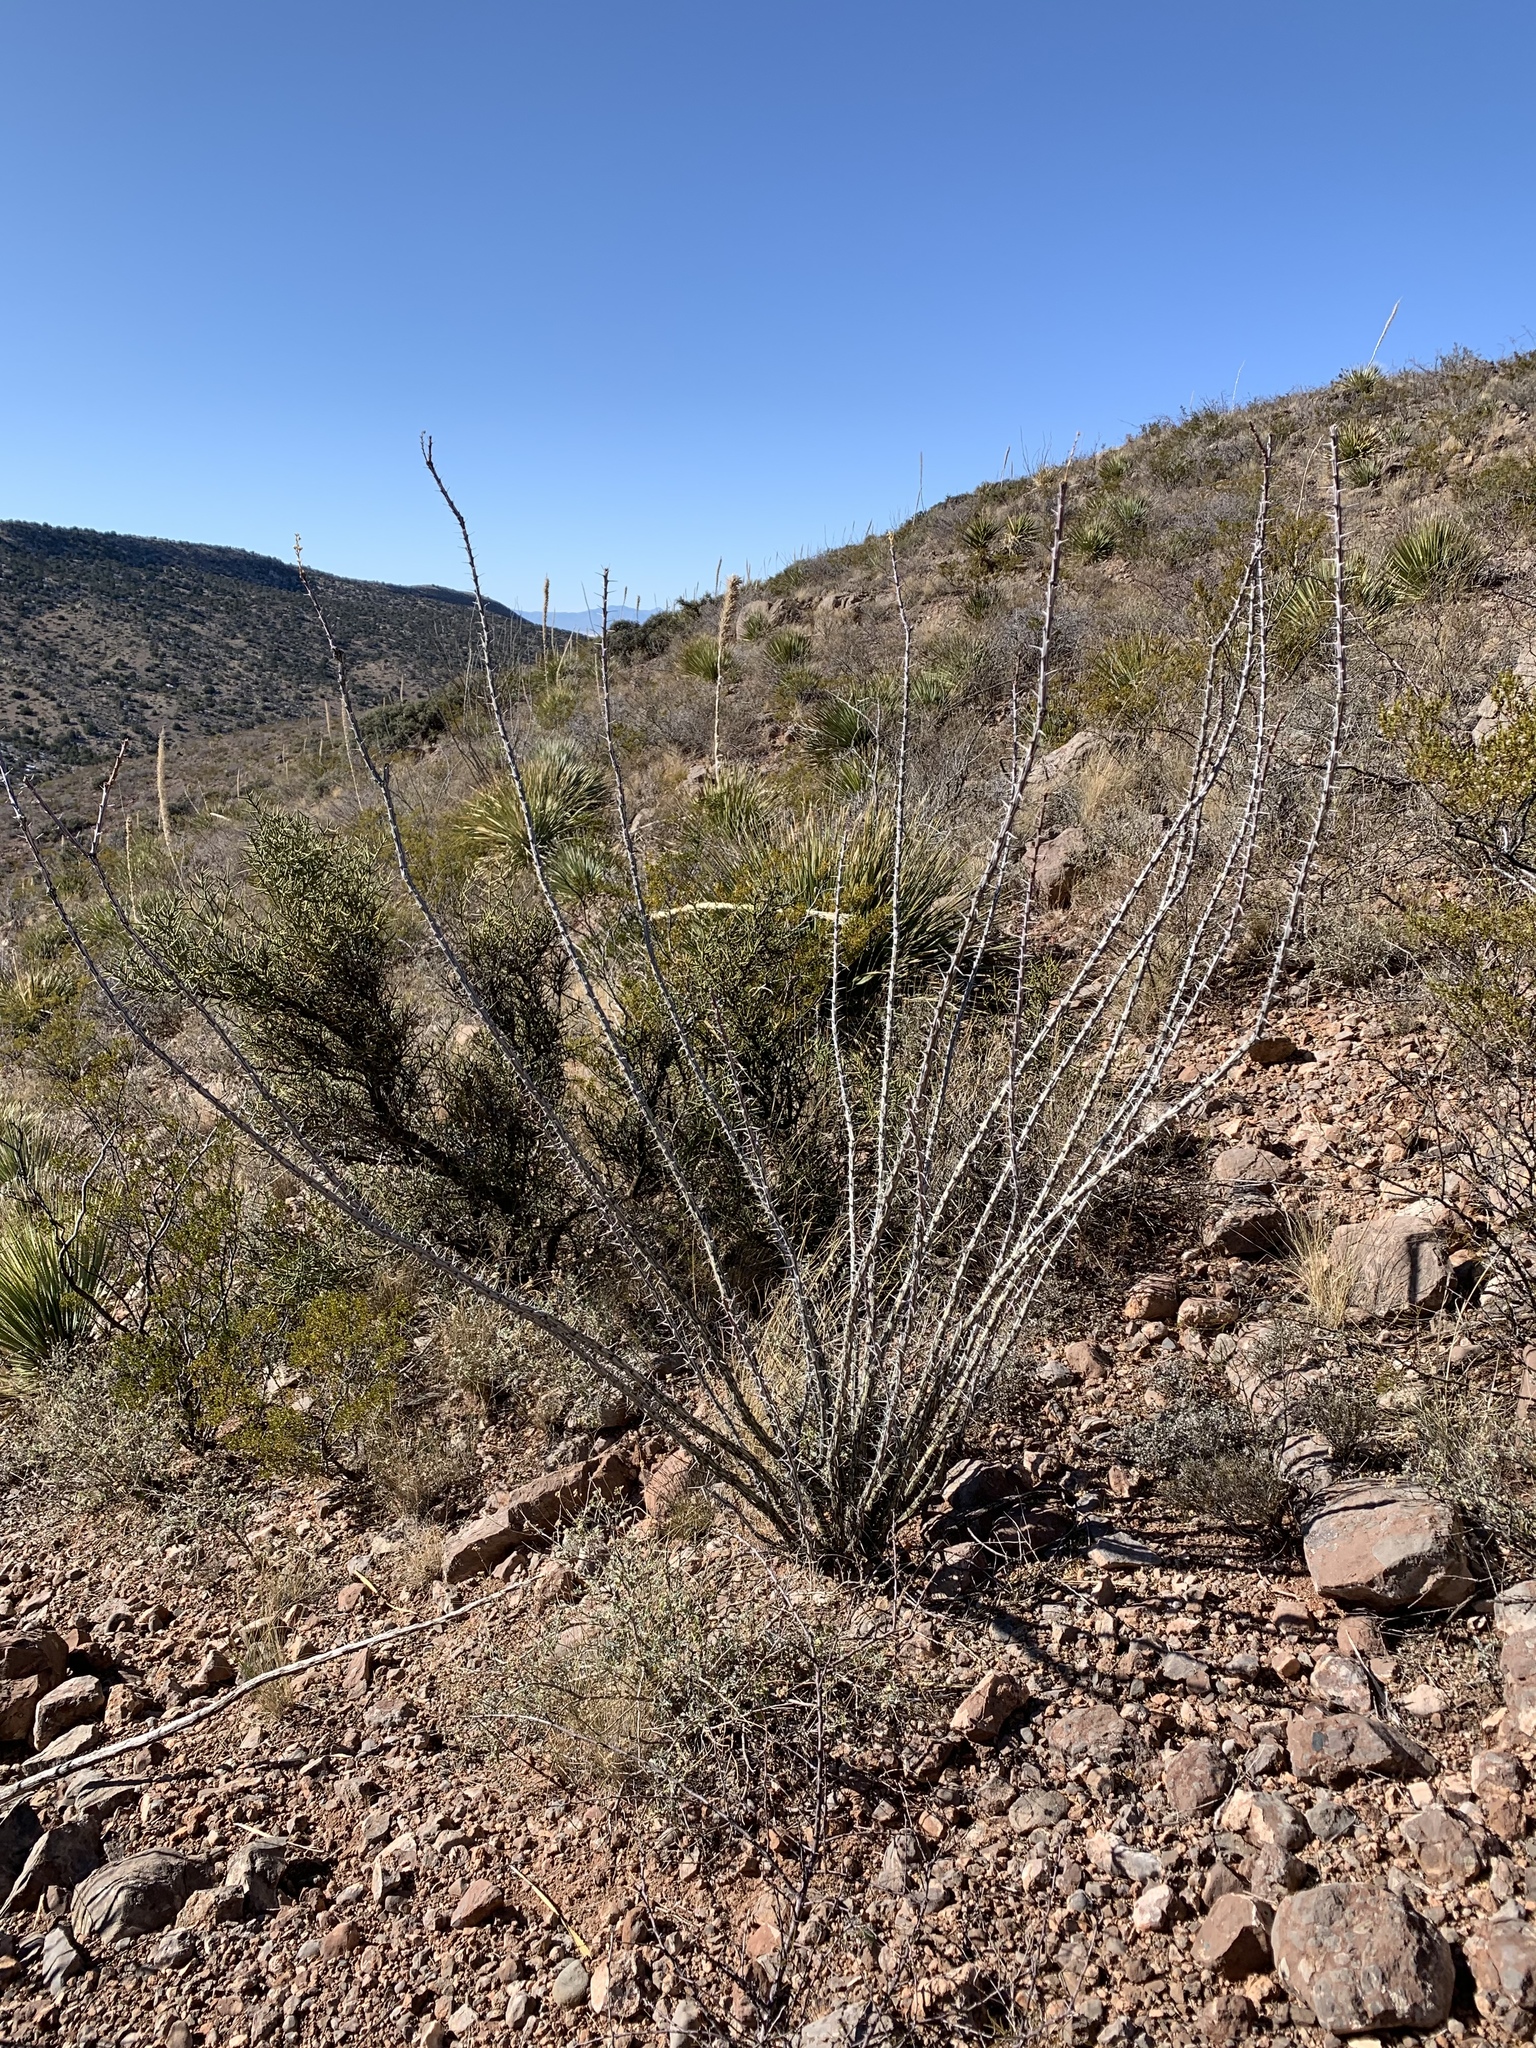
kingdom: Plantae
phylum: Tracheophyta
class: Magnoliopsida
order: Ericales
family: Fouquieriaceae
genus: Fouquieria
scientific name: Fouquieria splendens
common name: Vine-cactus
